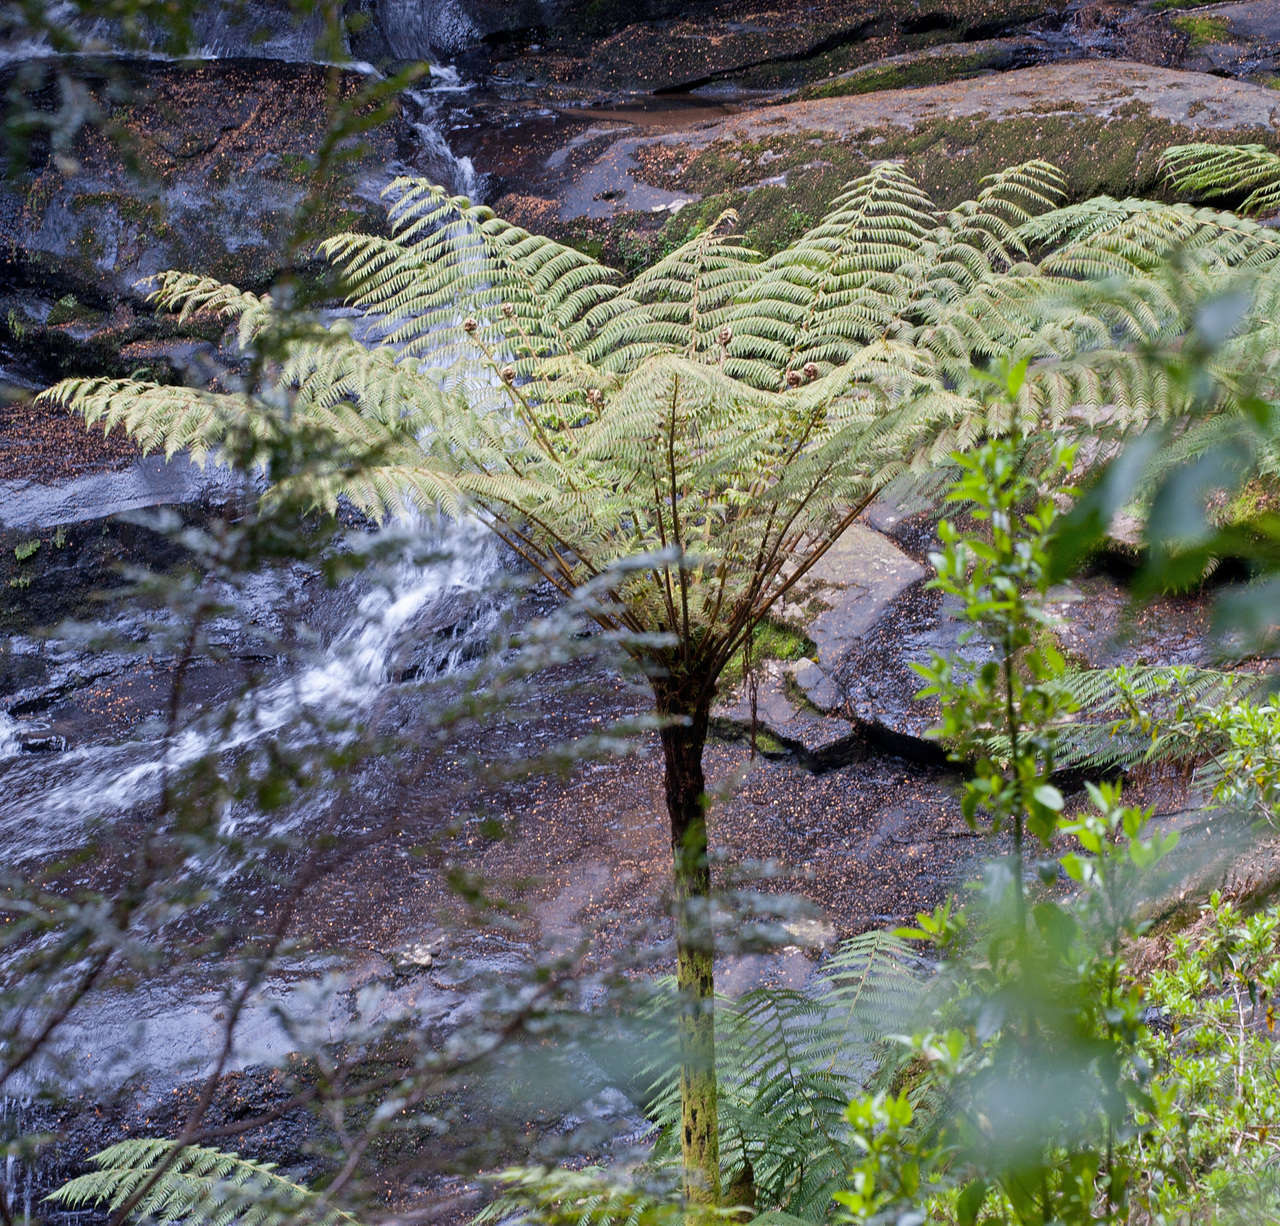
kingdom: Plantae
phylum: Tracheophyta
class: Polypodiopsida
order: Cyatheales
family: Cyatheaceae
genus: Cyathea
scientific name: Cyathea cunninghamii
